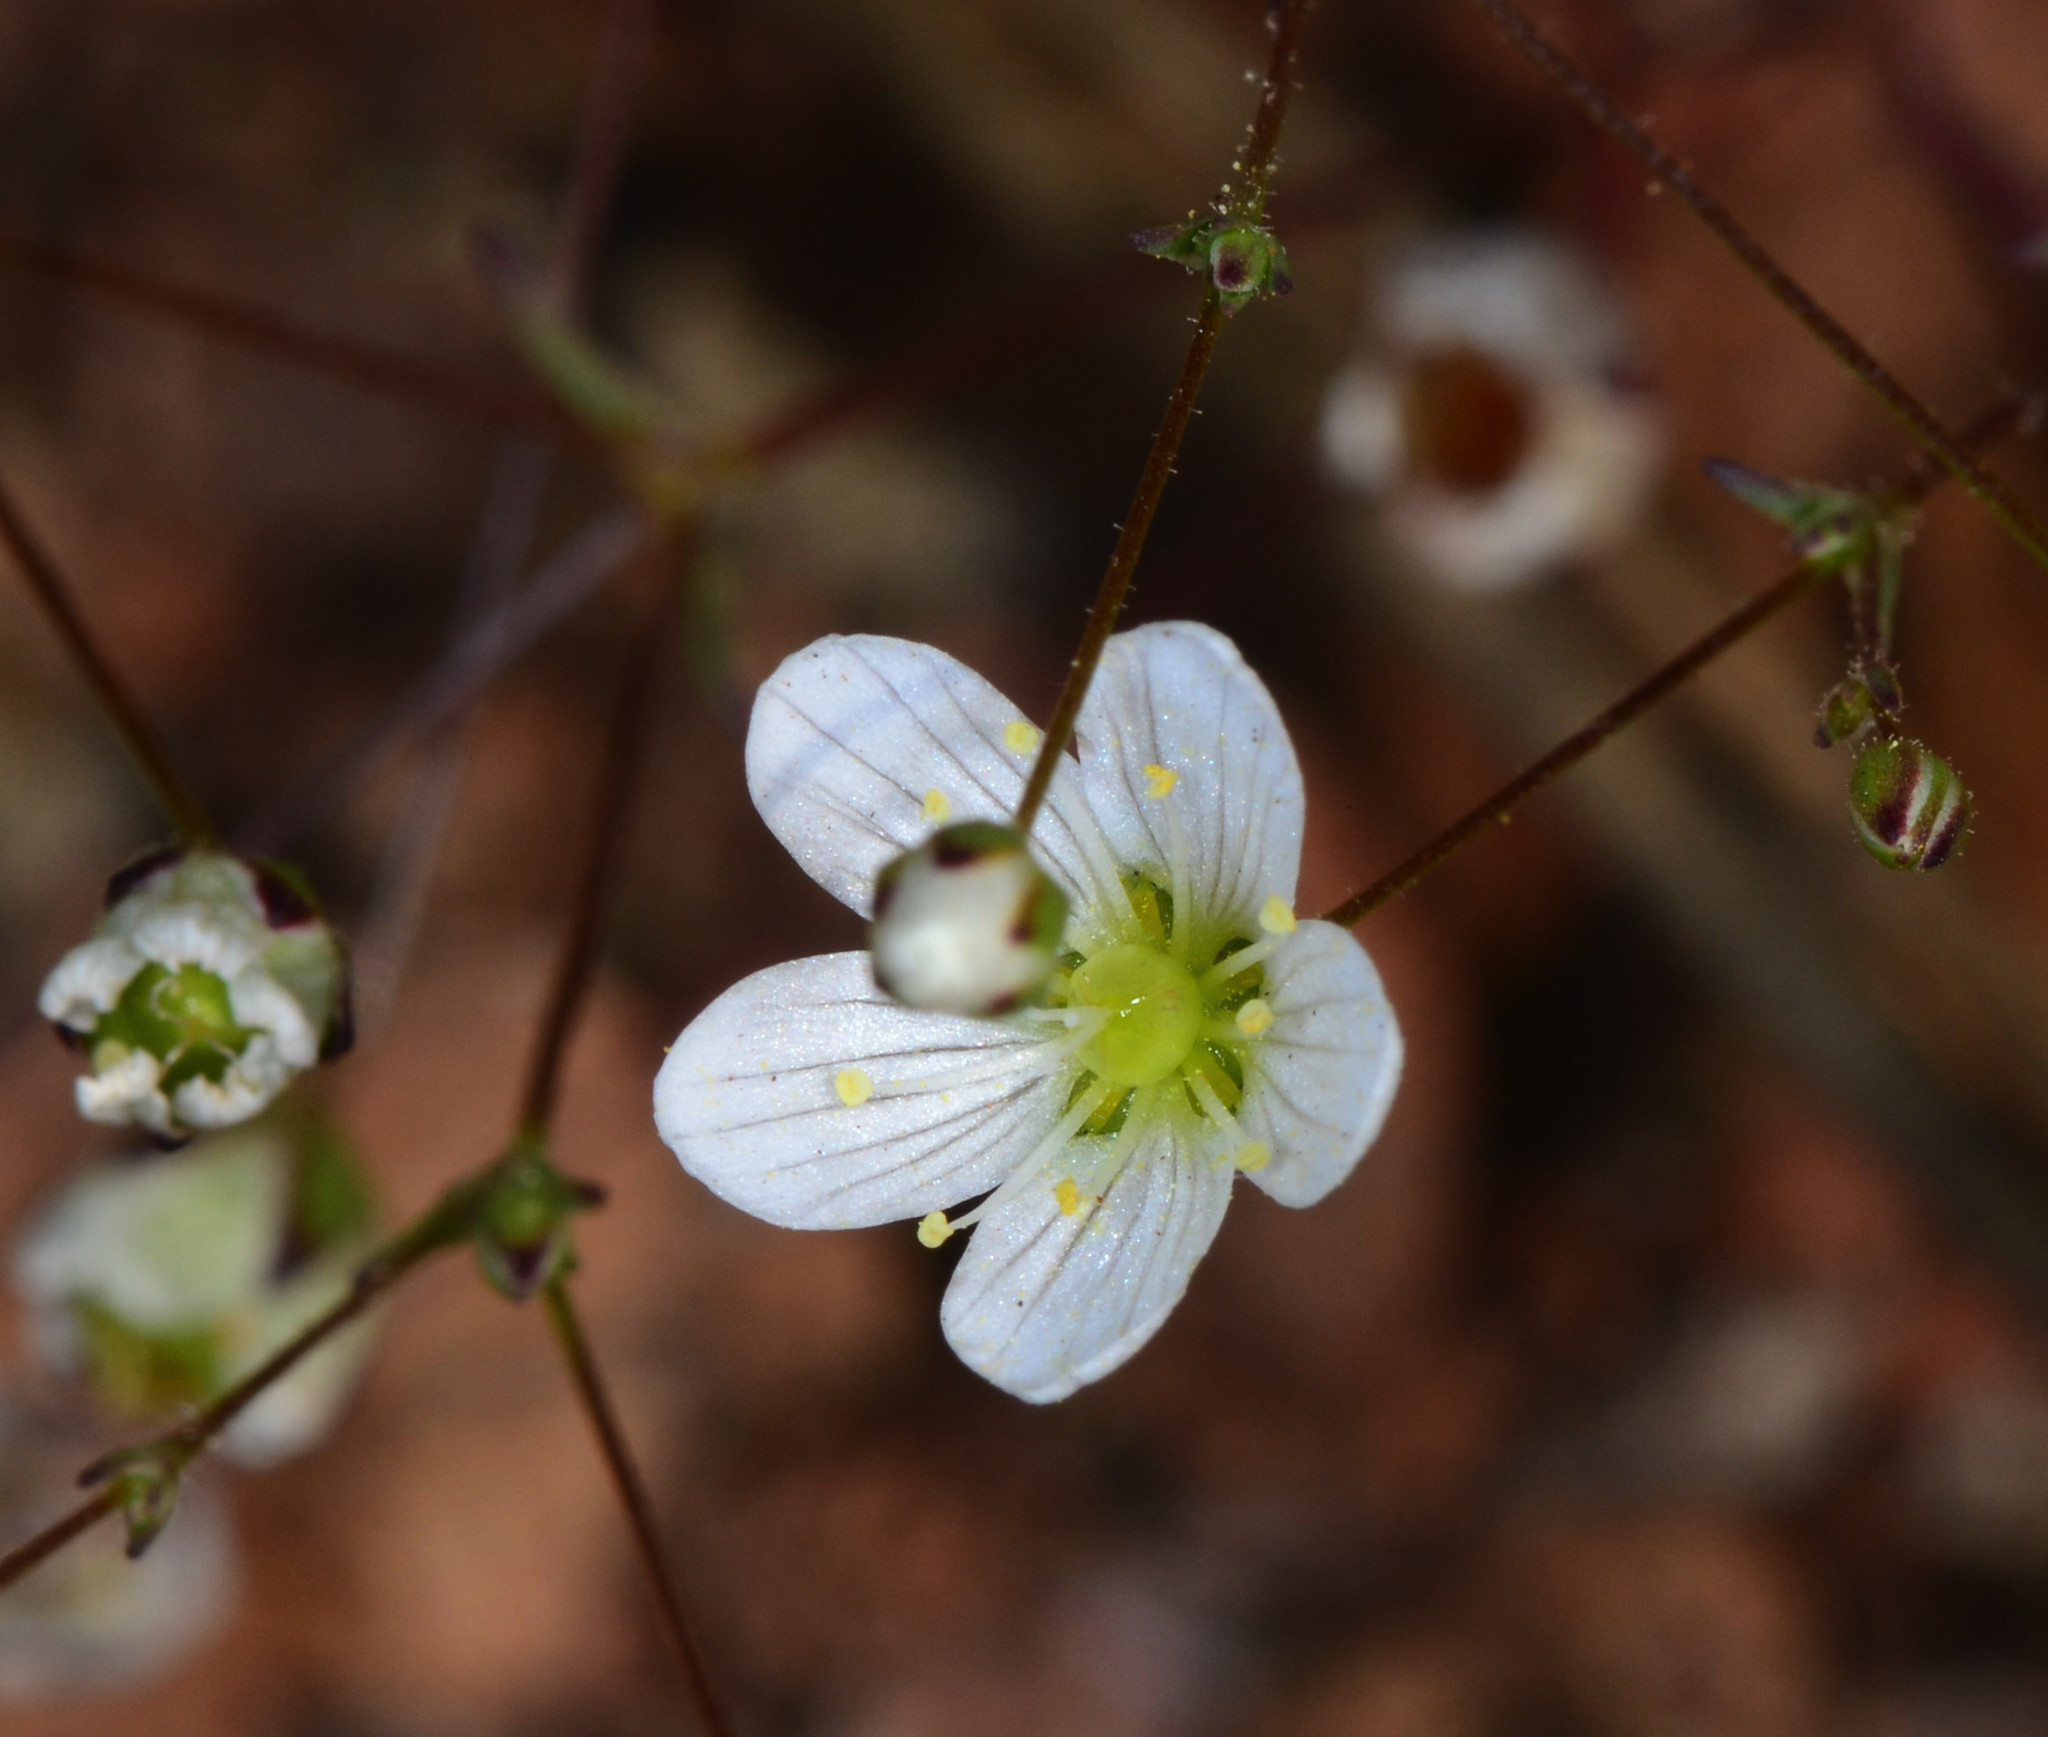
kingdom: Plantae
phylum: Tracheophyta
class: Magnoliopsida
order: Caryophyllales
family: Caryophyllaceae
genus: Sabulina
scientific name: Sabulina douglasii
